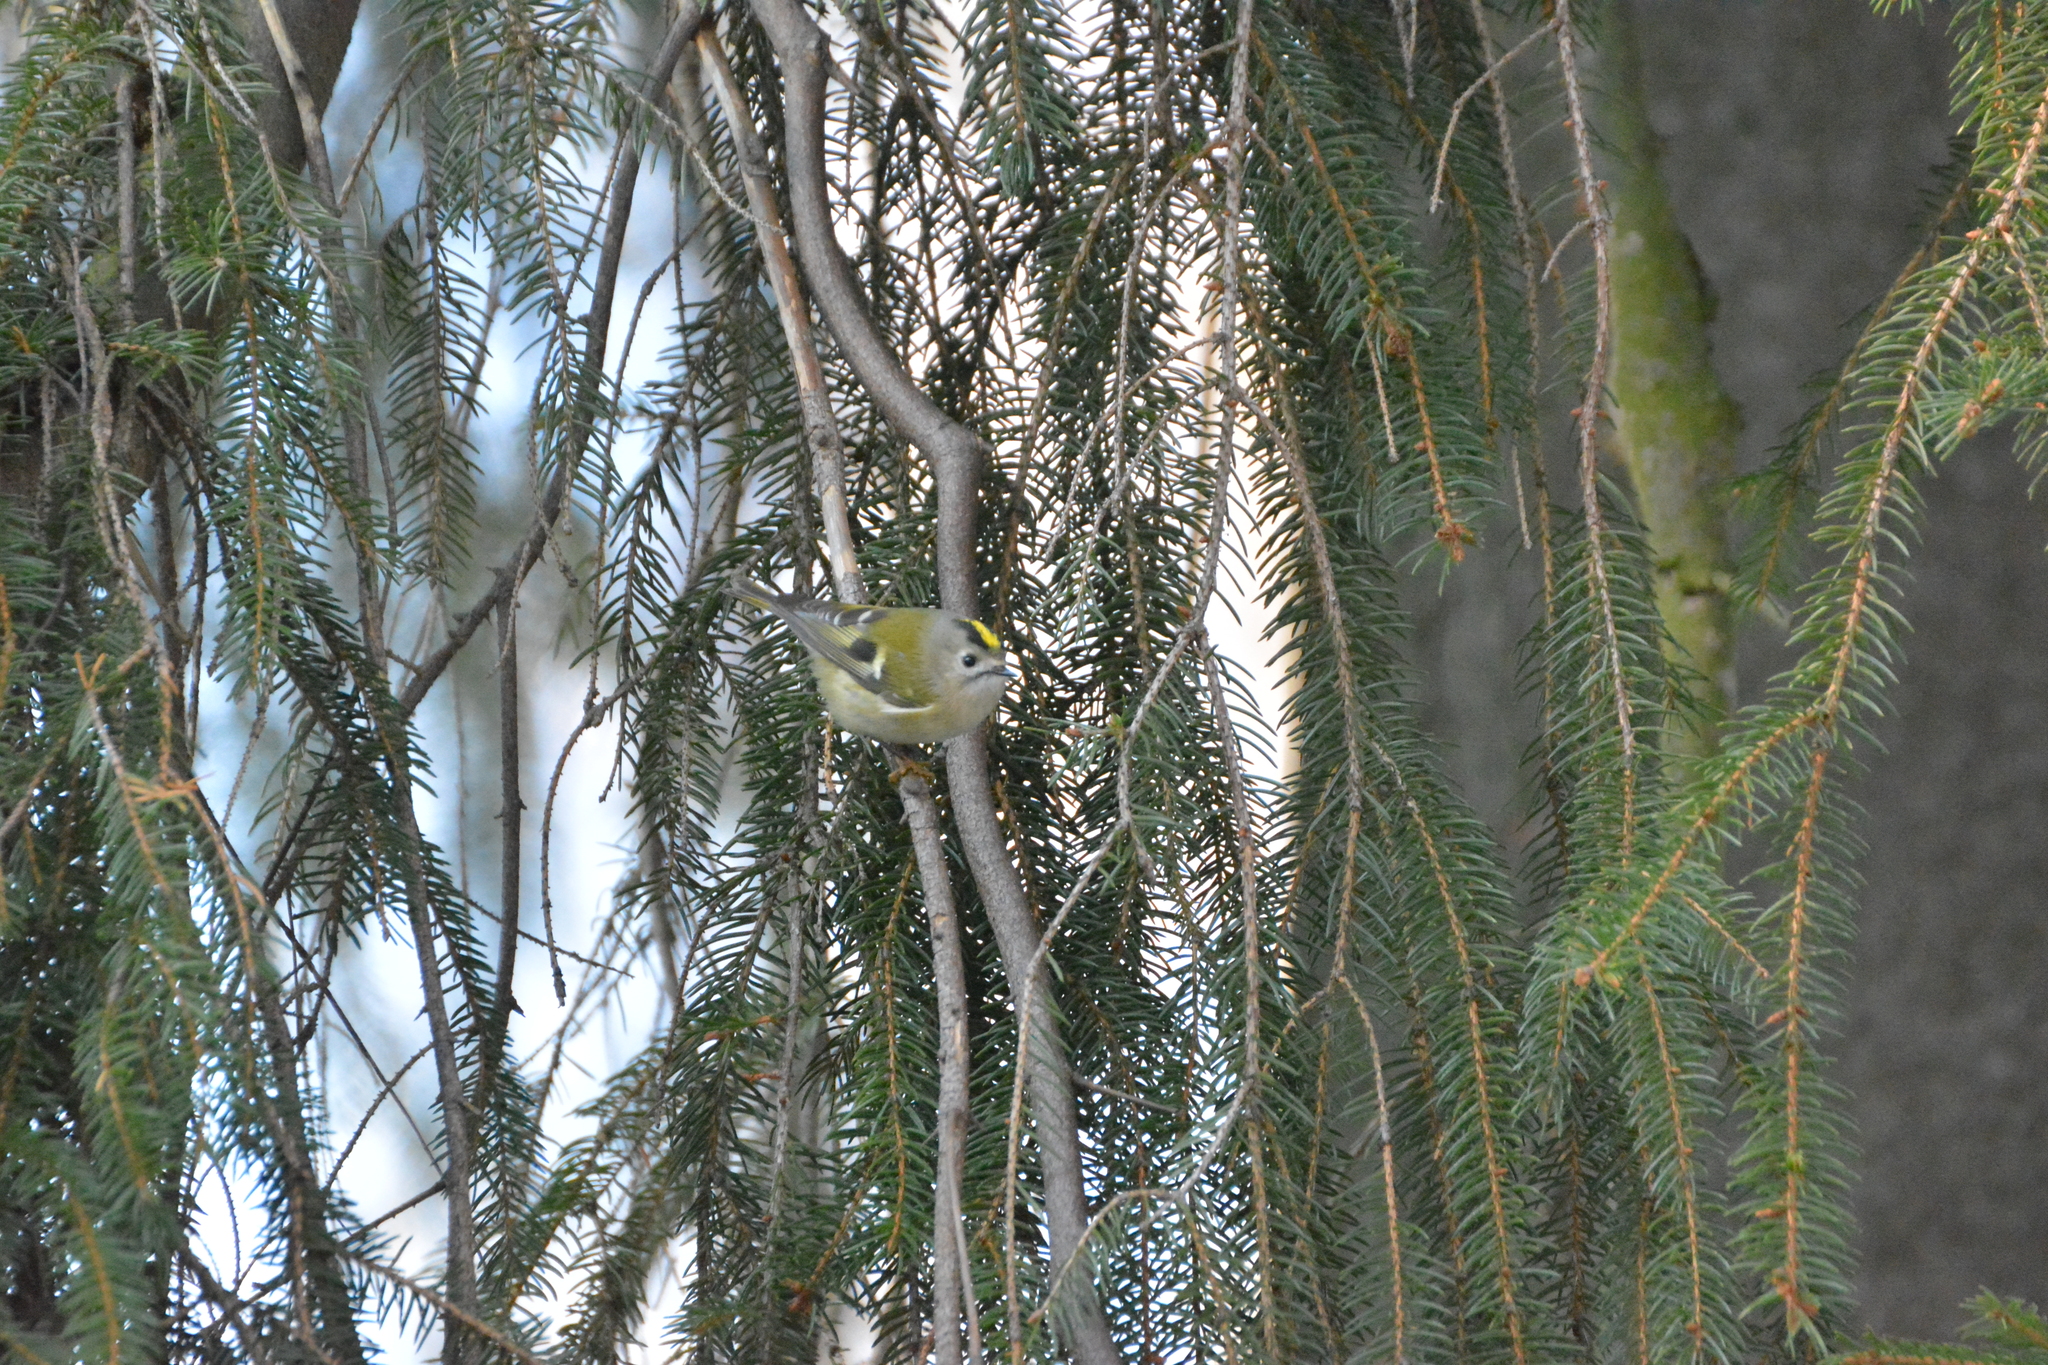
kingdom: Animalia
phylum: Chordata
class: Aves
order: Passeriformes
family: Regulidae
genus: Regulus
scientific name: Regulus regulus
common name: Goldcrest
